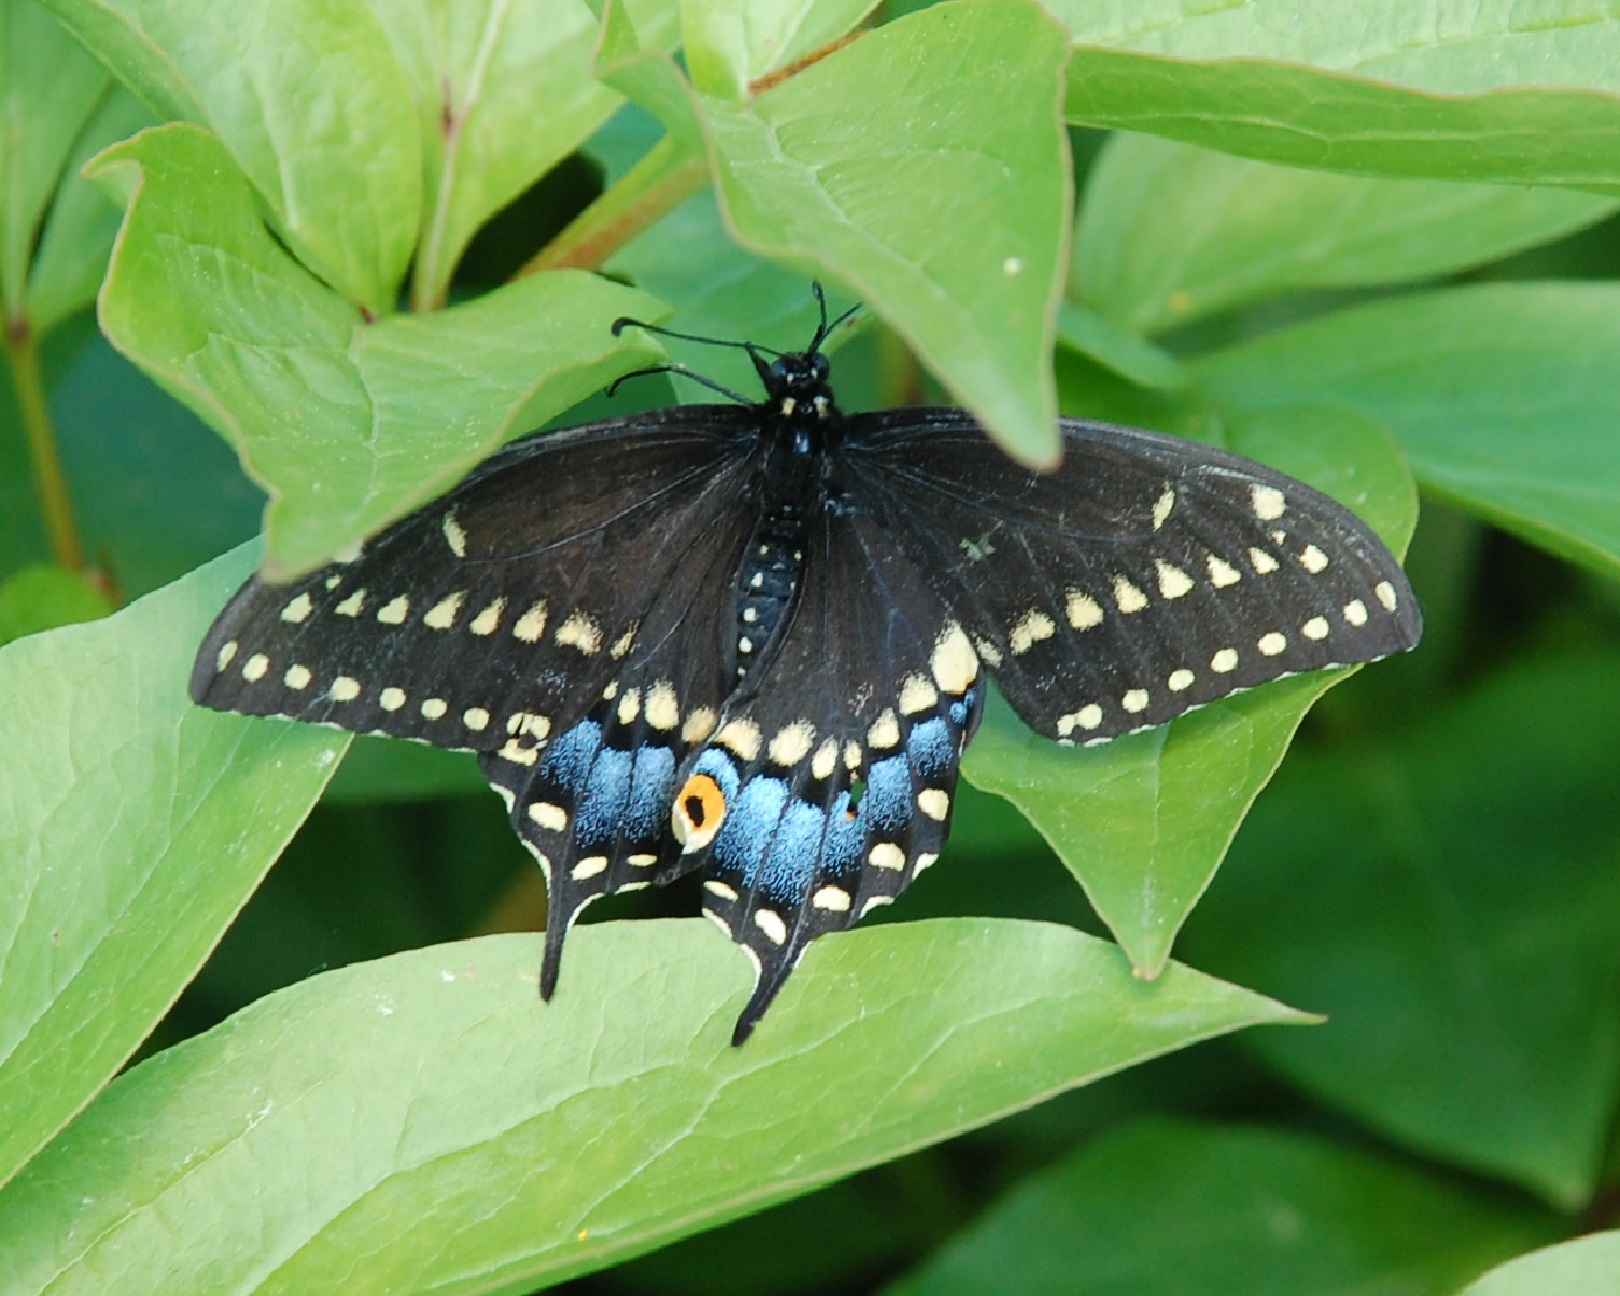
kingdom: Animalia
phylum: Arthropoda
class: Insecta
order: Lepidoptera
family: Papilionidae
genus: Papilio
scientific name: Papilio polyxenes
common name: Black swallowtail
